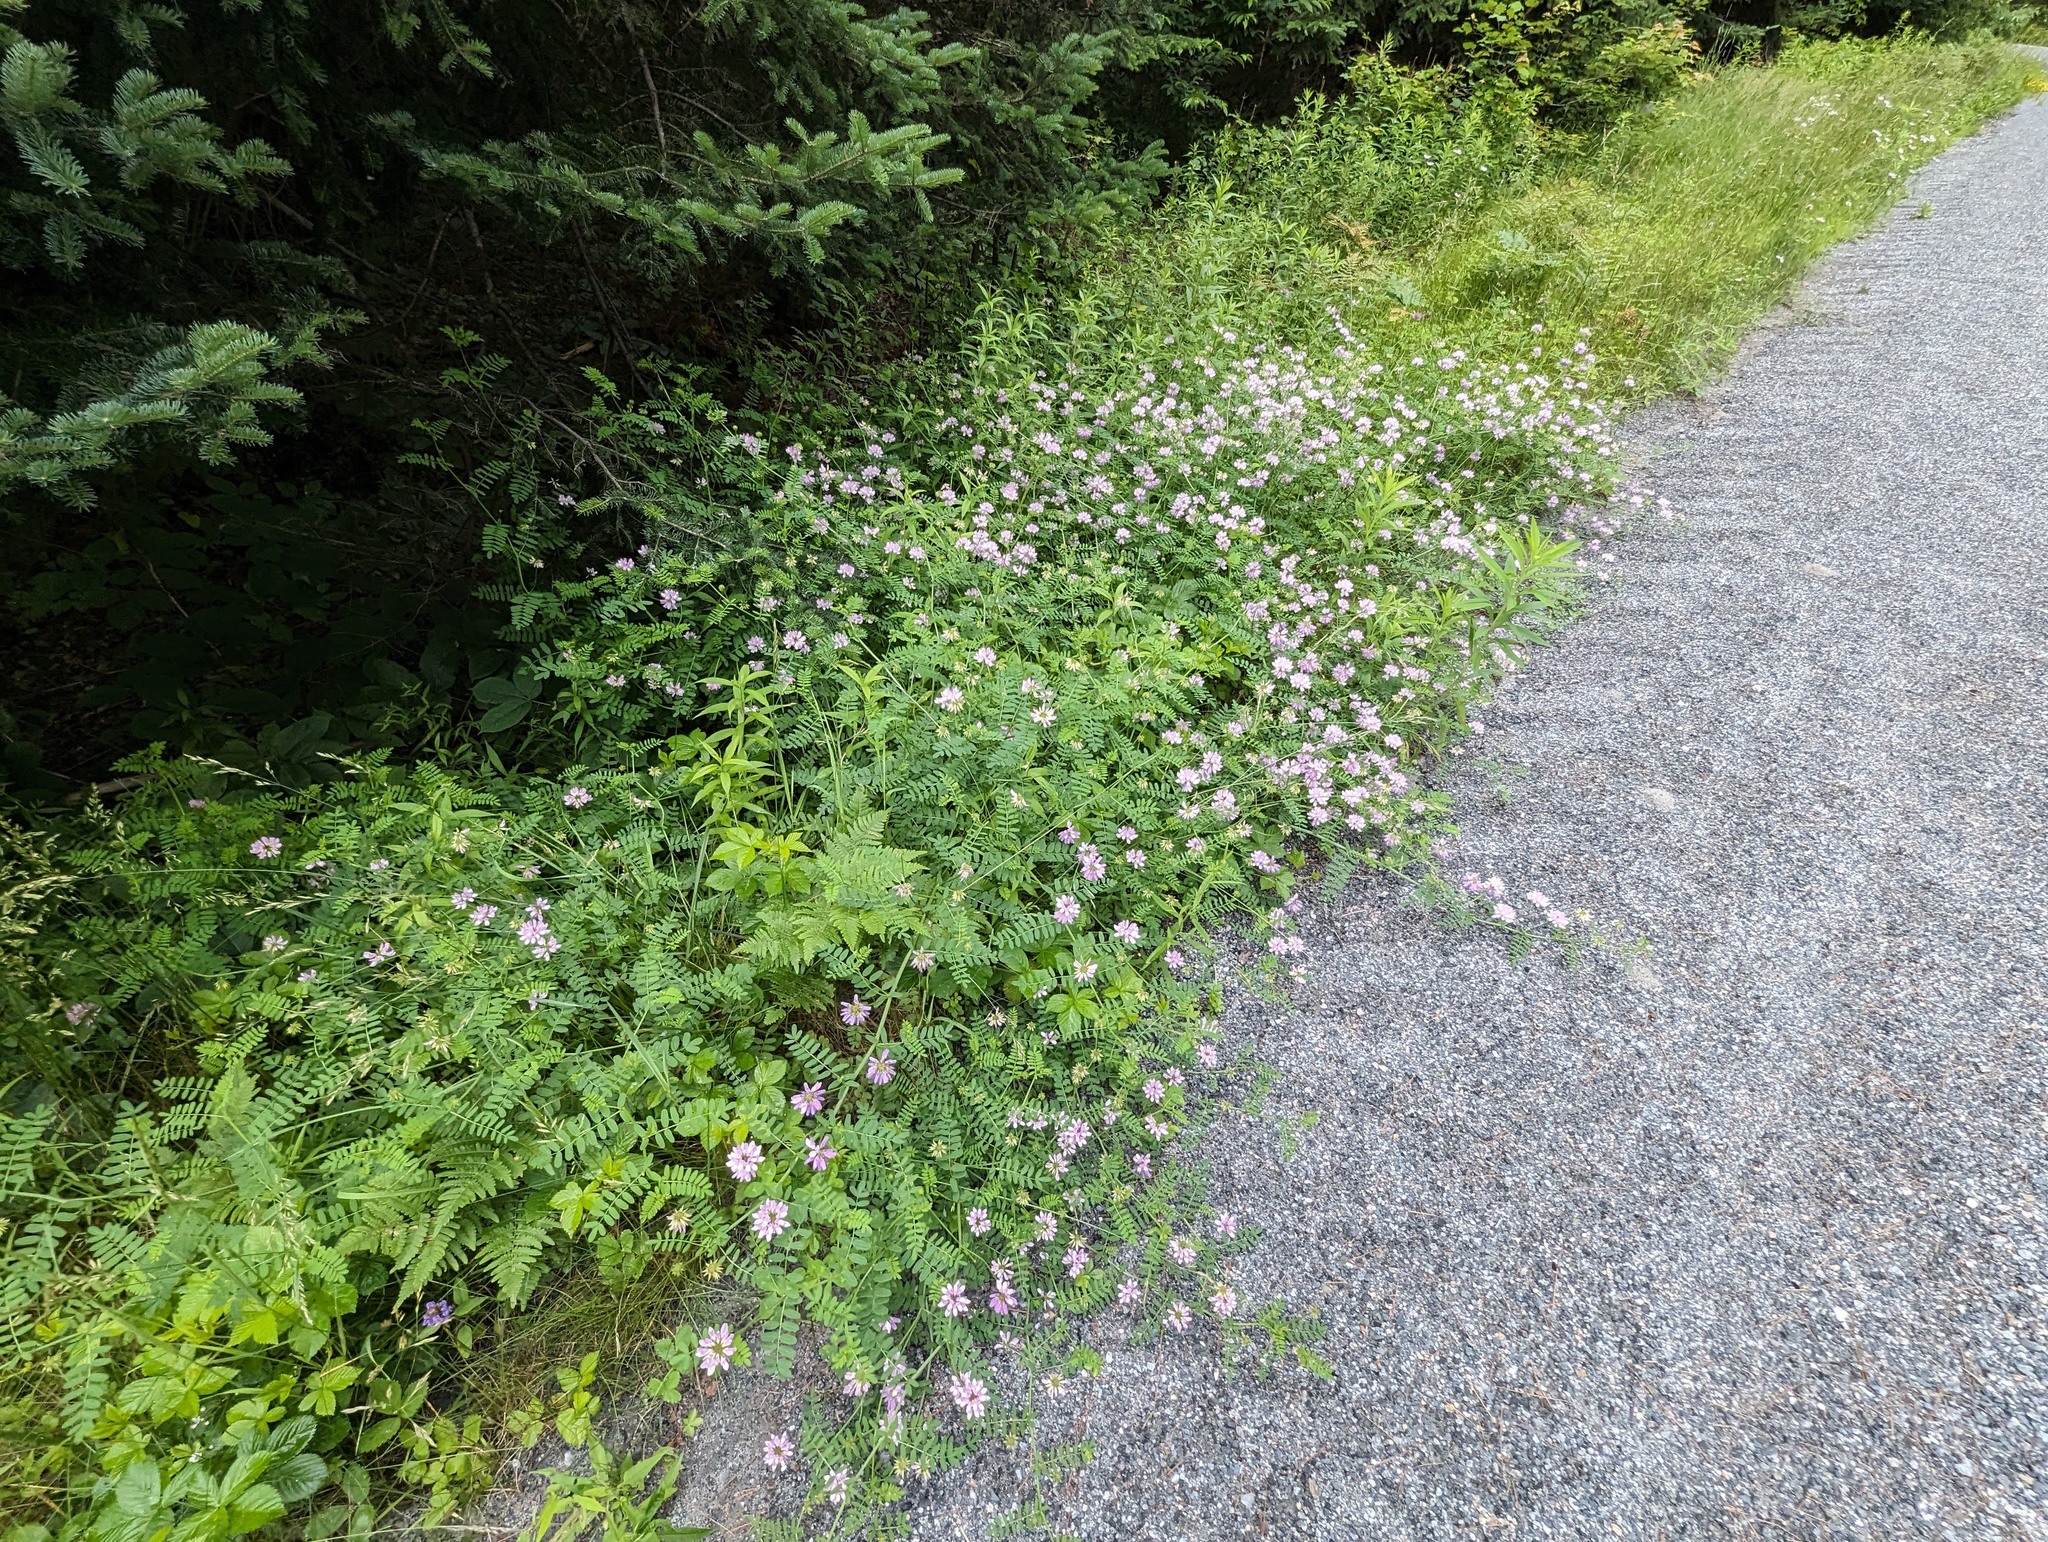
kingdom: Plantae
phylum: Tracheophyta
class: Magnoliopsida
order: Fabales
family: Fabaceae
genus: Coronilla
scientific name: Coronilla varia
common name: Crownvetch
